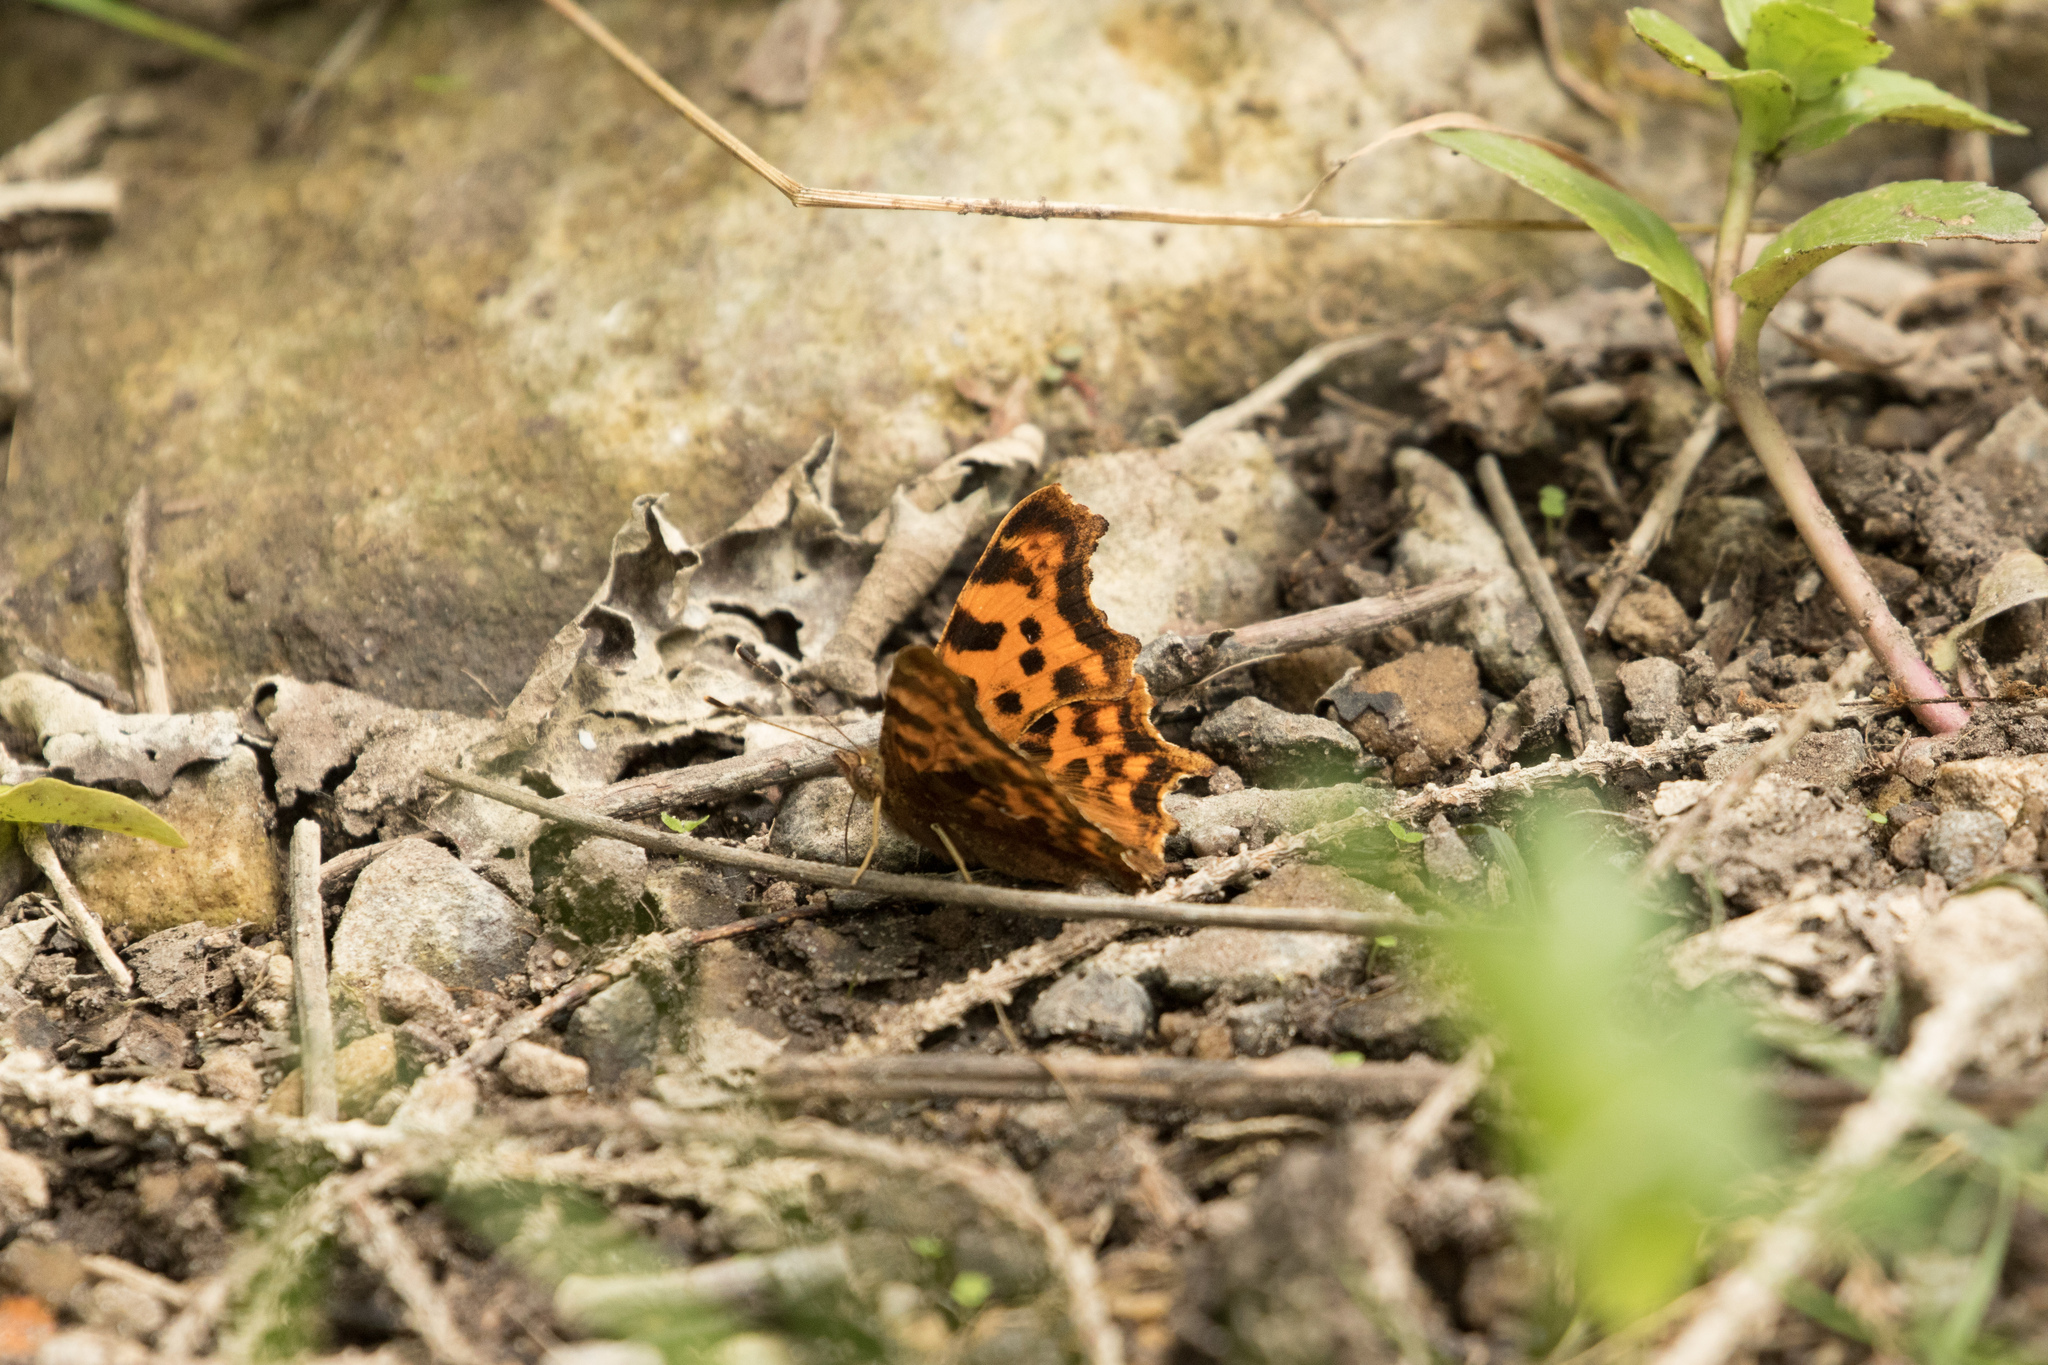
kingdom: Animalia
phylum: Arthropoda
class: Insecta
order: Lepidoptera
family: Nymphalidae
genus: Polygonia
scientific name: Polygonia c-album
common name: Comma
